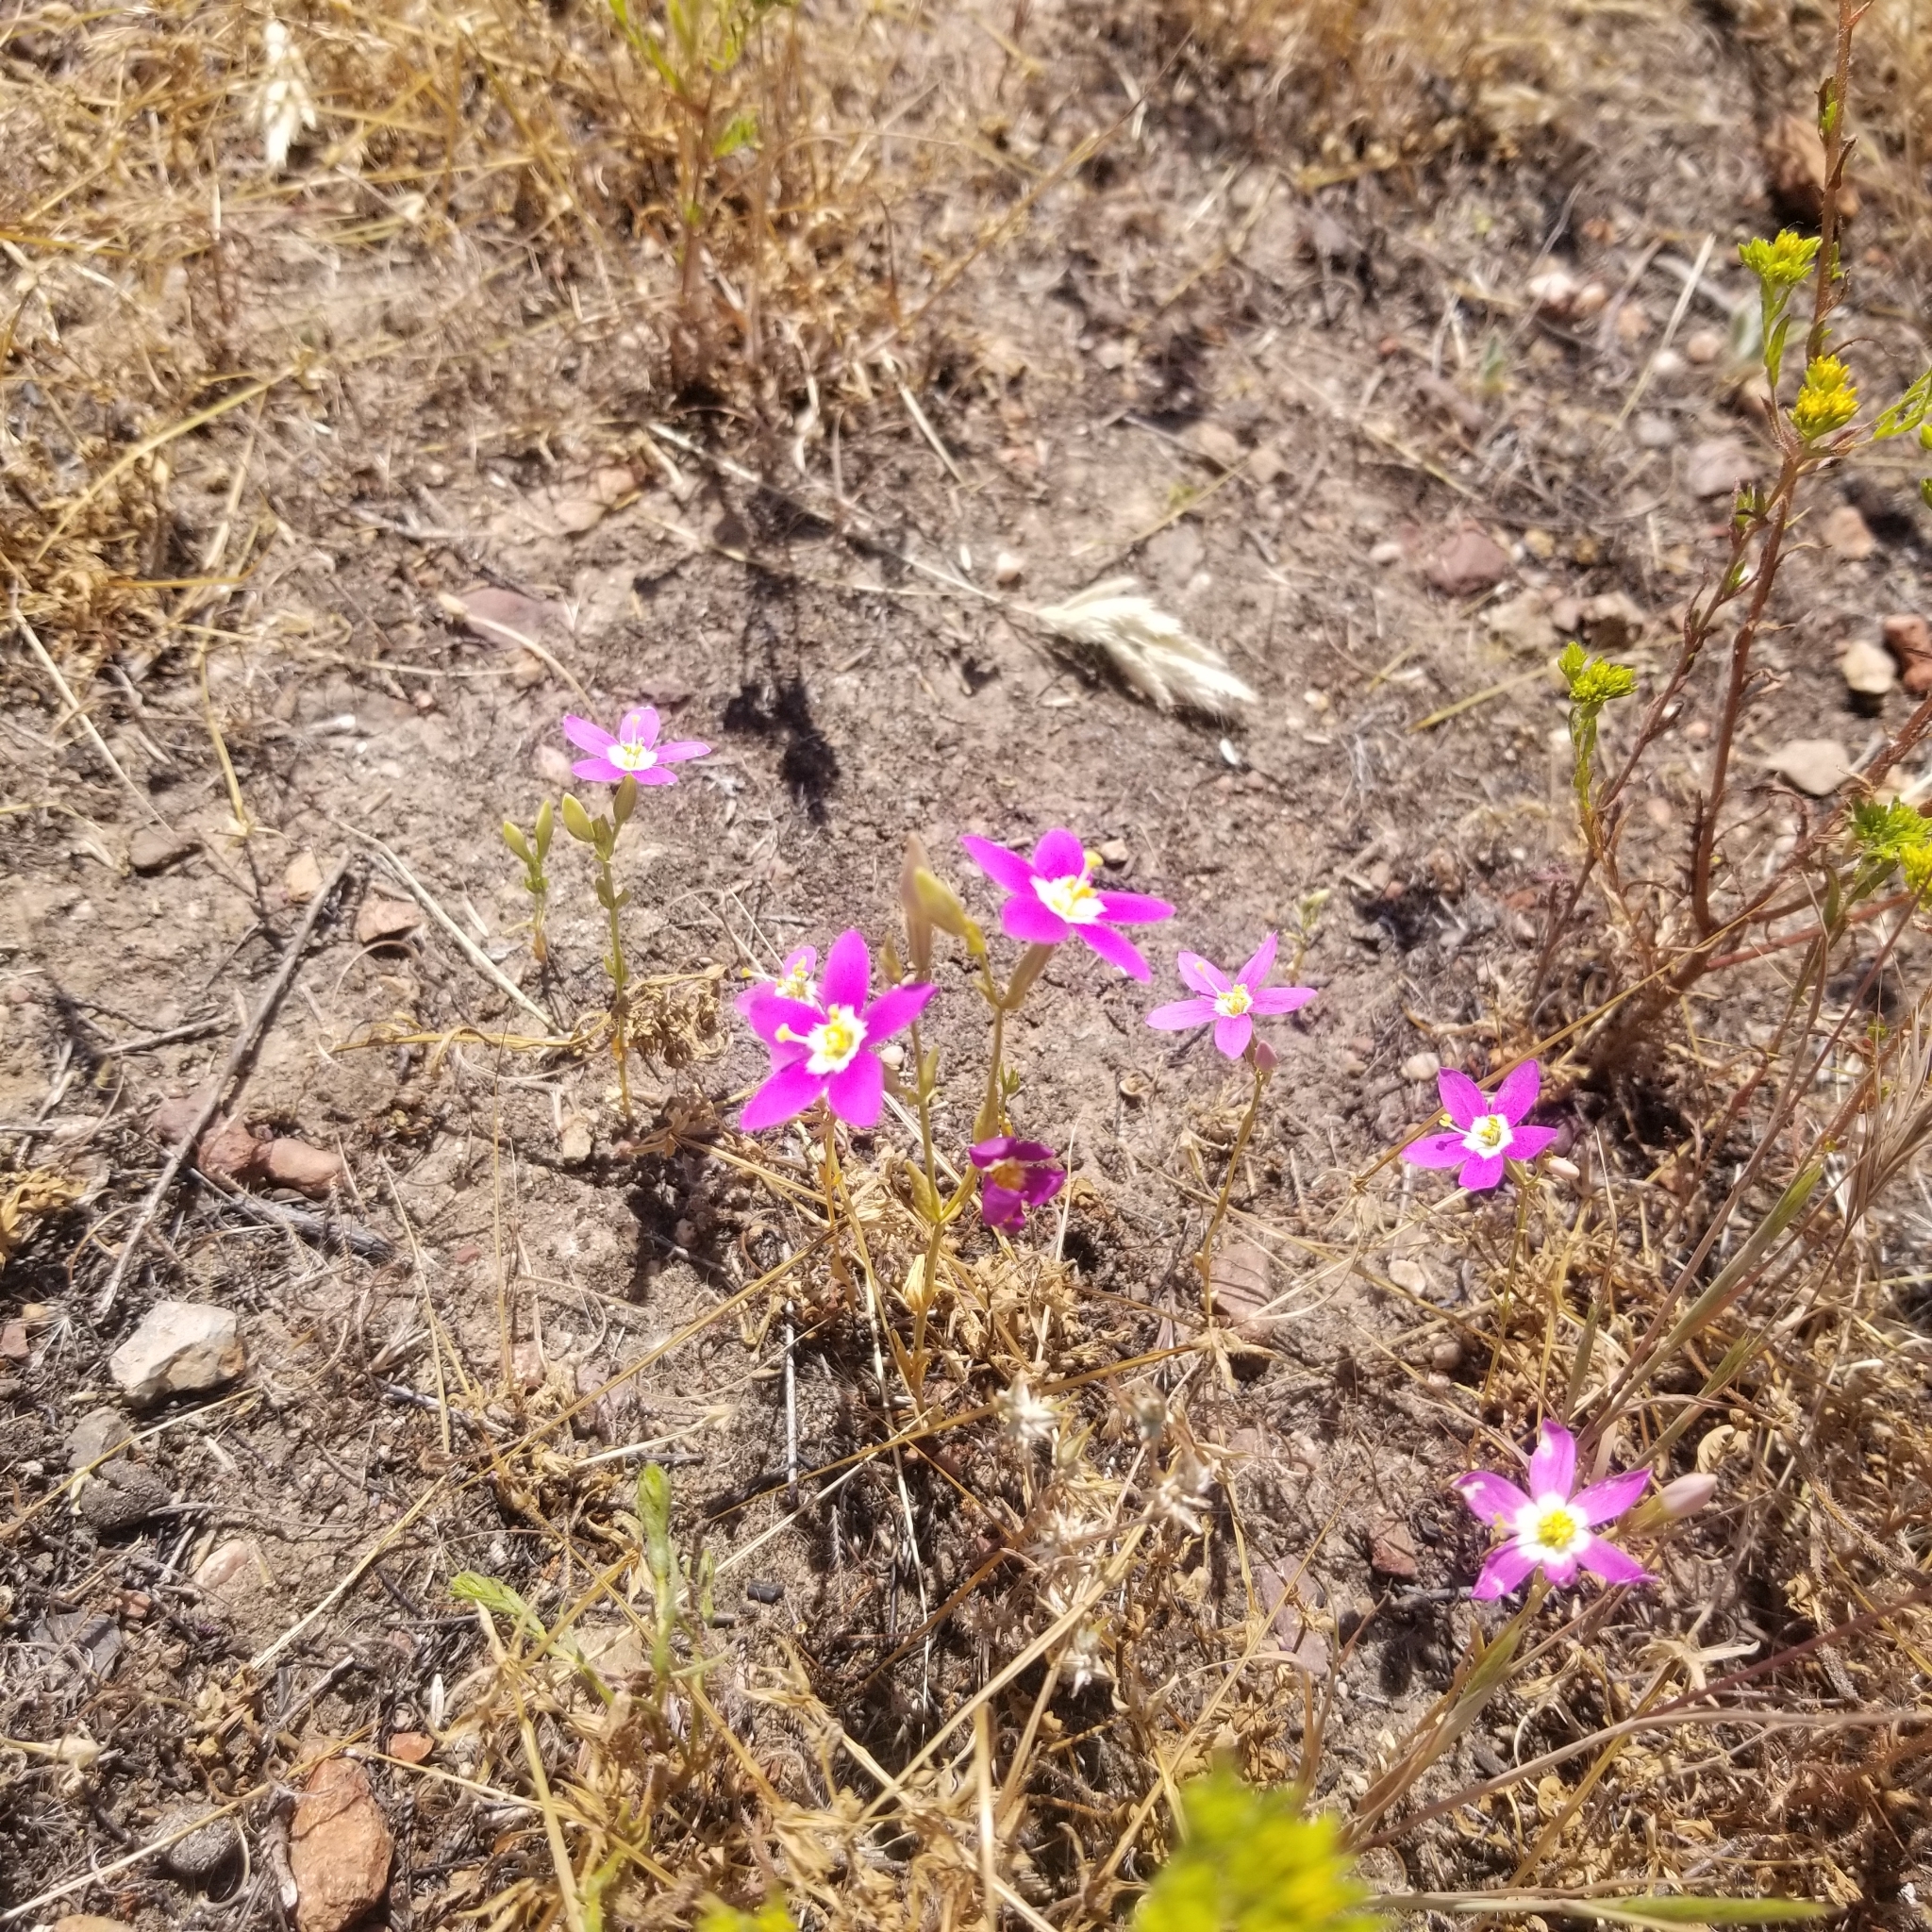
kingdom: Plantae
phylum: Tracheophyta
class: Magnoliopsida
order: Gentianales
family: Gentianaceae
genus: Zeltnera
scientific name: Zeltnera venusta
